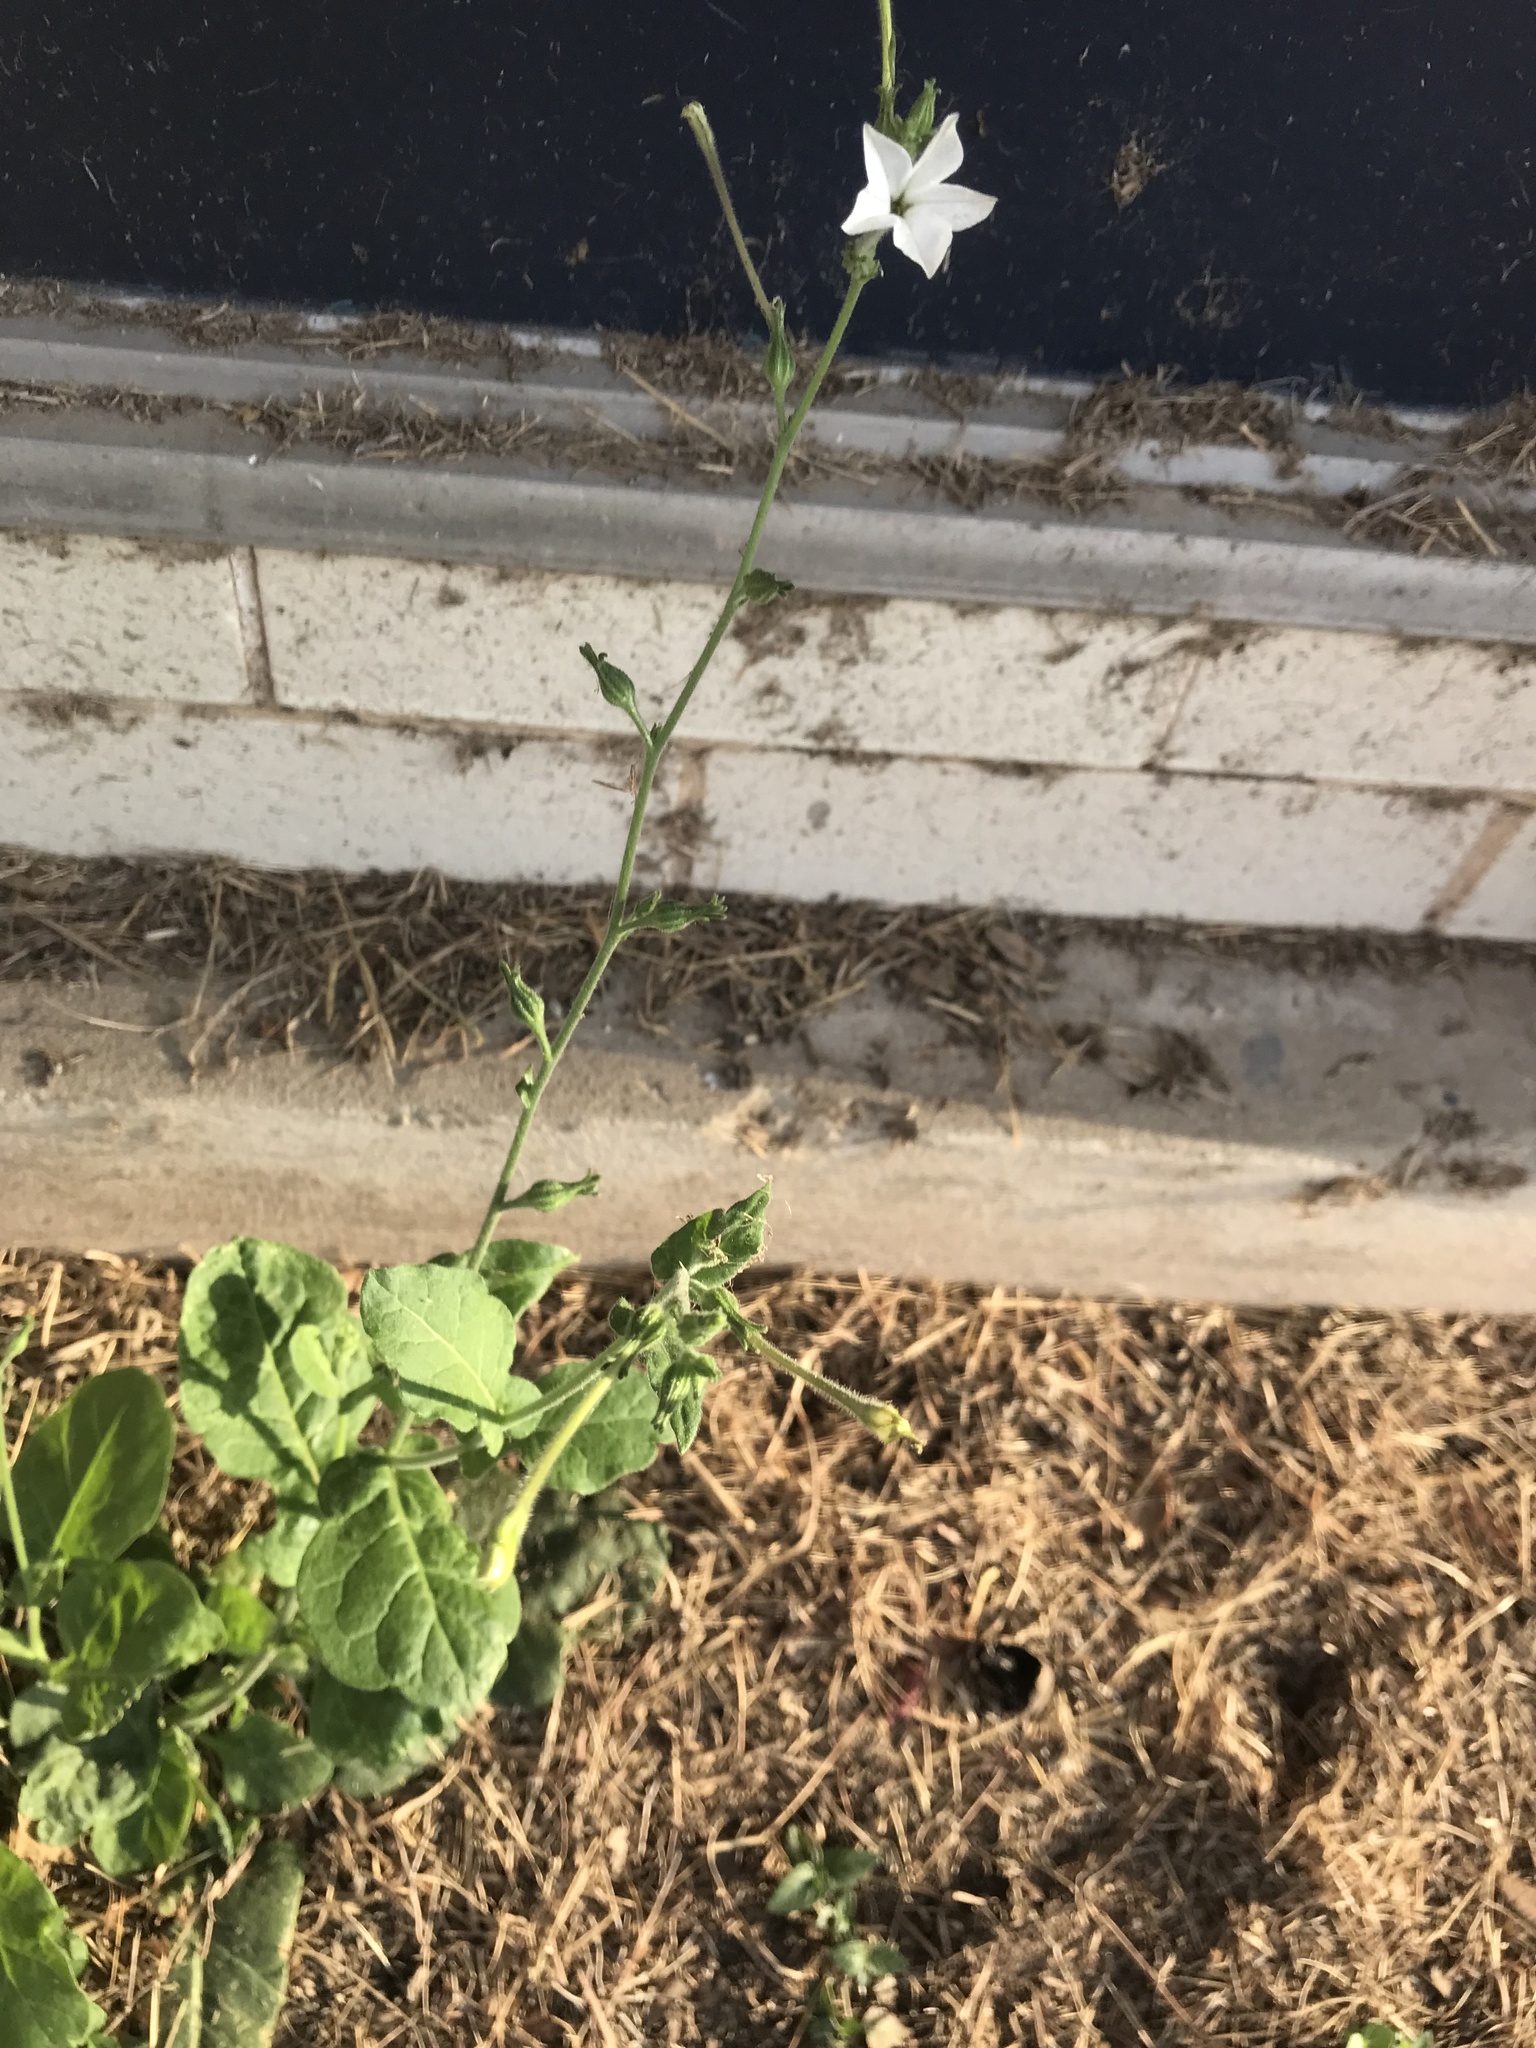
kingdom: Plantae
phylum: Tracheophyta
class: Magnoliopsida
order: Solanales
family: Solanaceae
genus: Nicotiana
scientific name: Nicotiana repanda
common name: Fiddle-leaf tobacco
